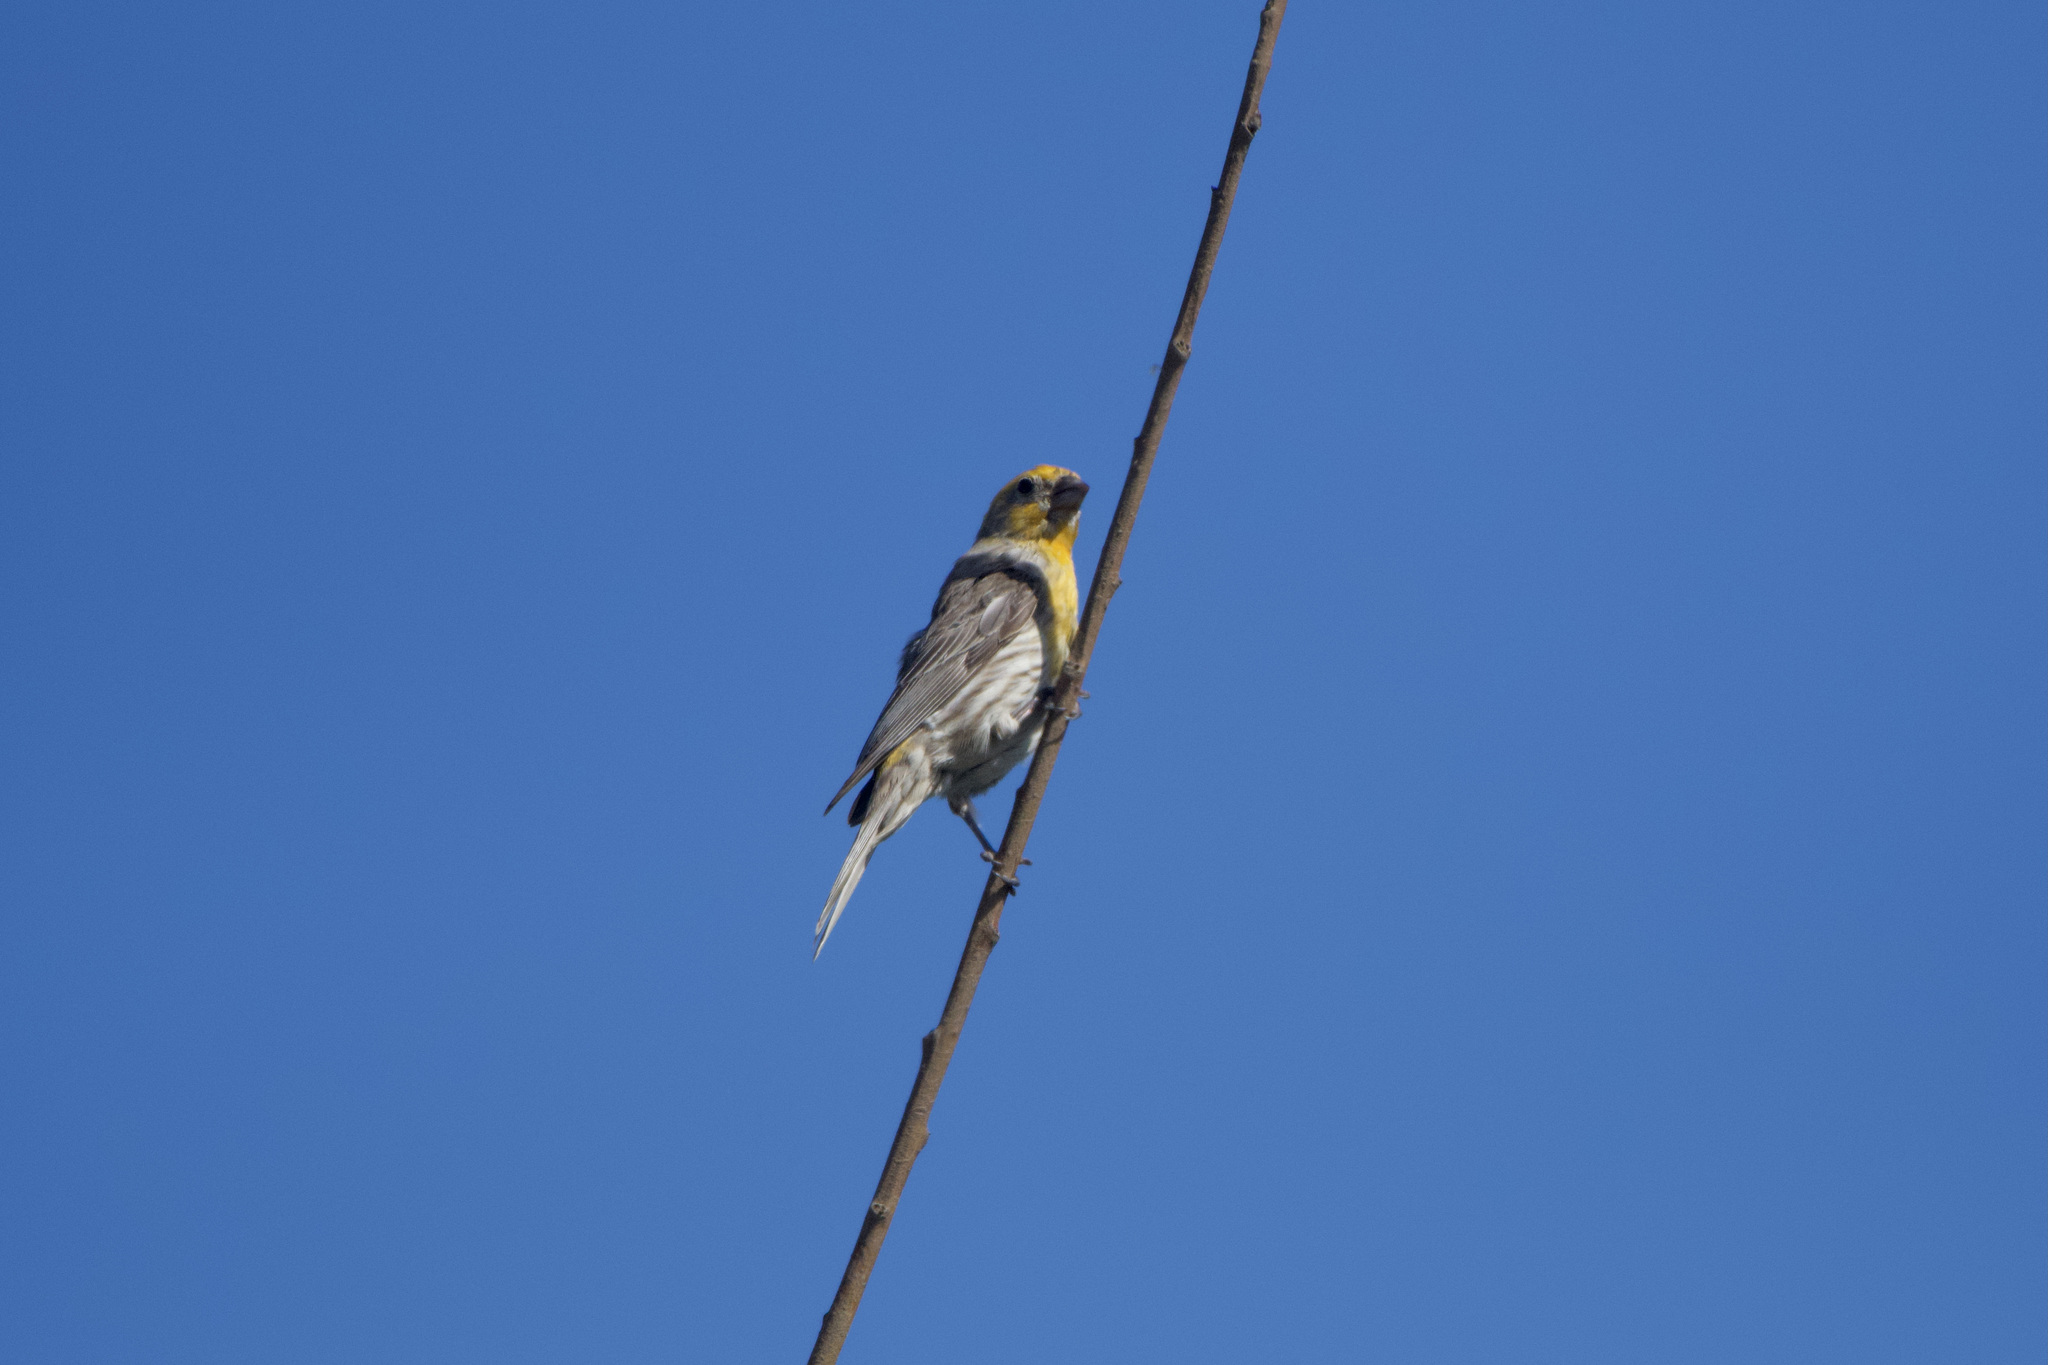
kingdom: Animalia
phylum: Chordata
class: Aves
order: Passeriformes
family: Fringillidae
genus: Haemorhous
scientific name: Haemorhous mexicanus
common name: House finch
